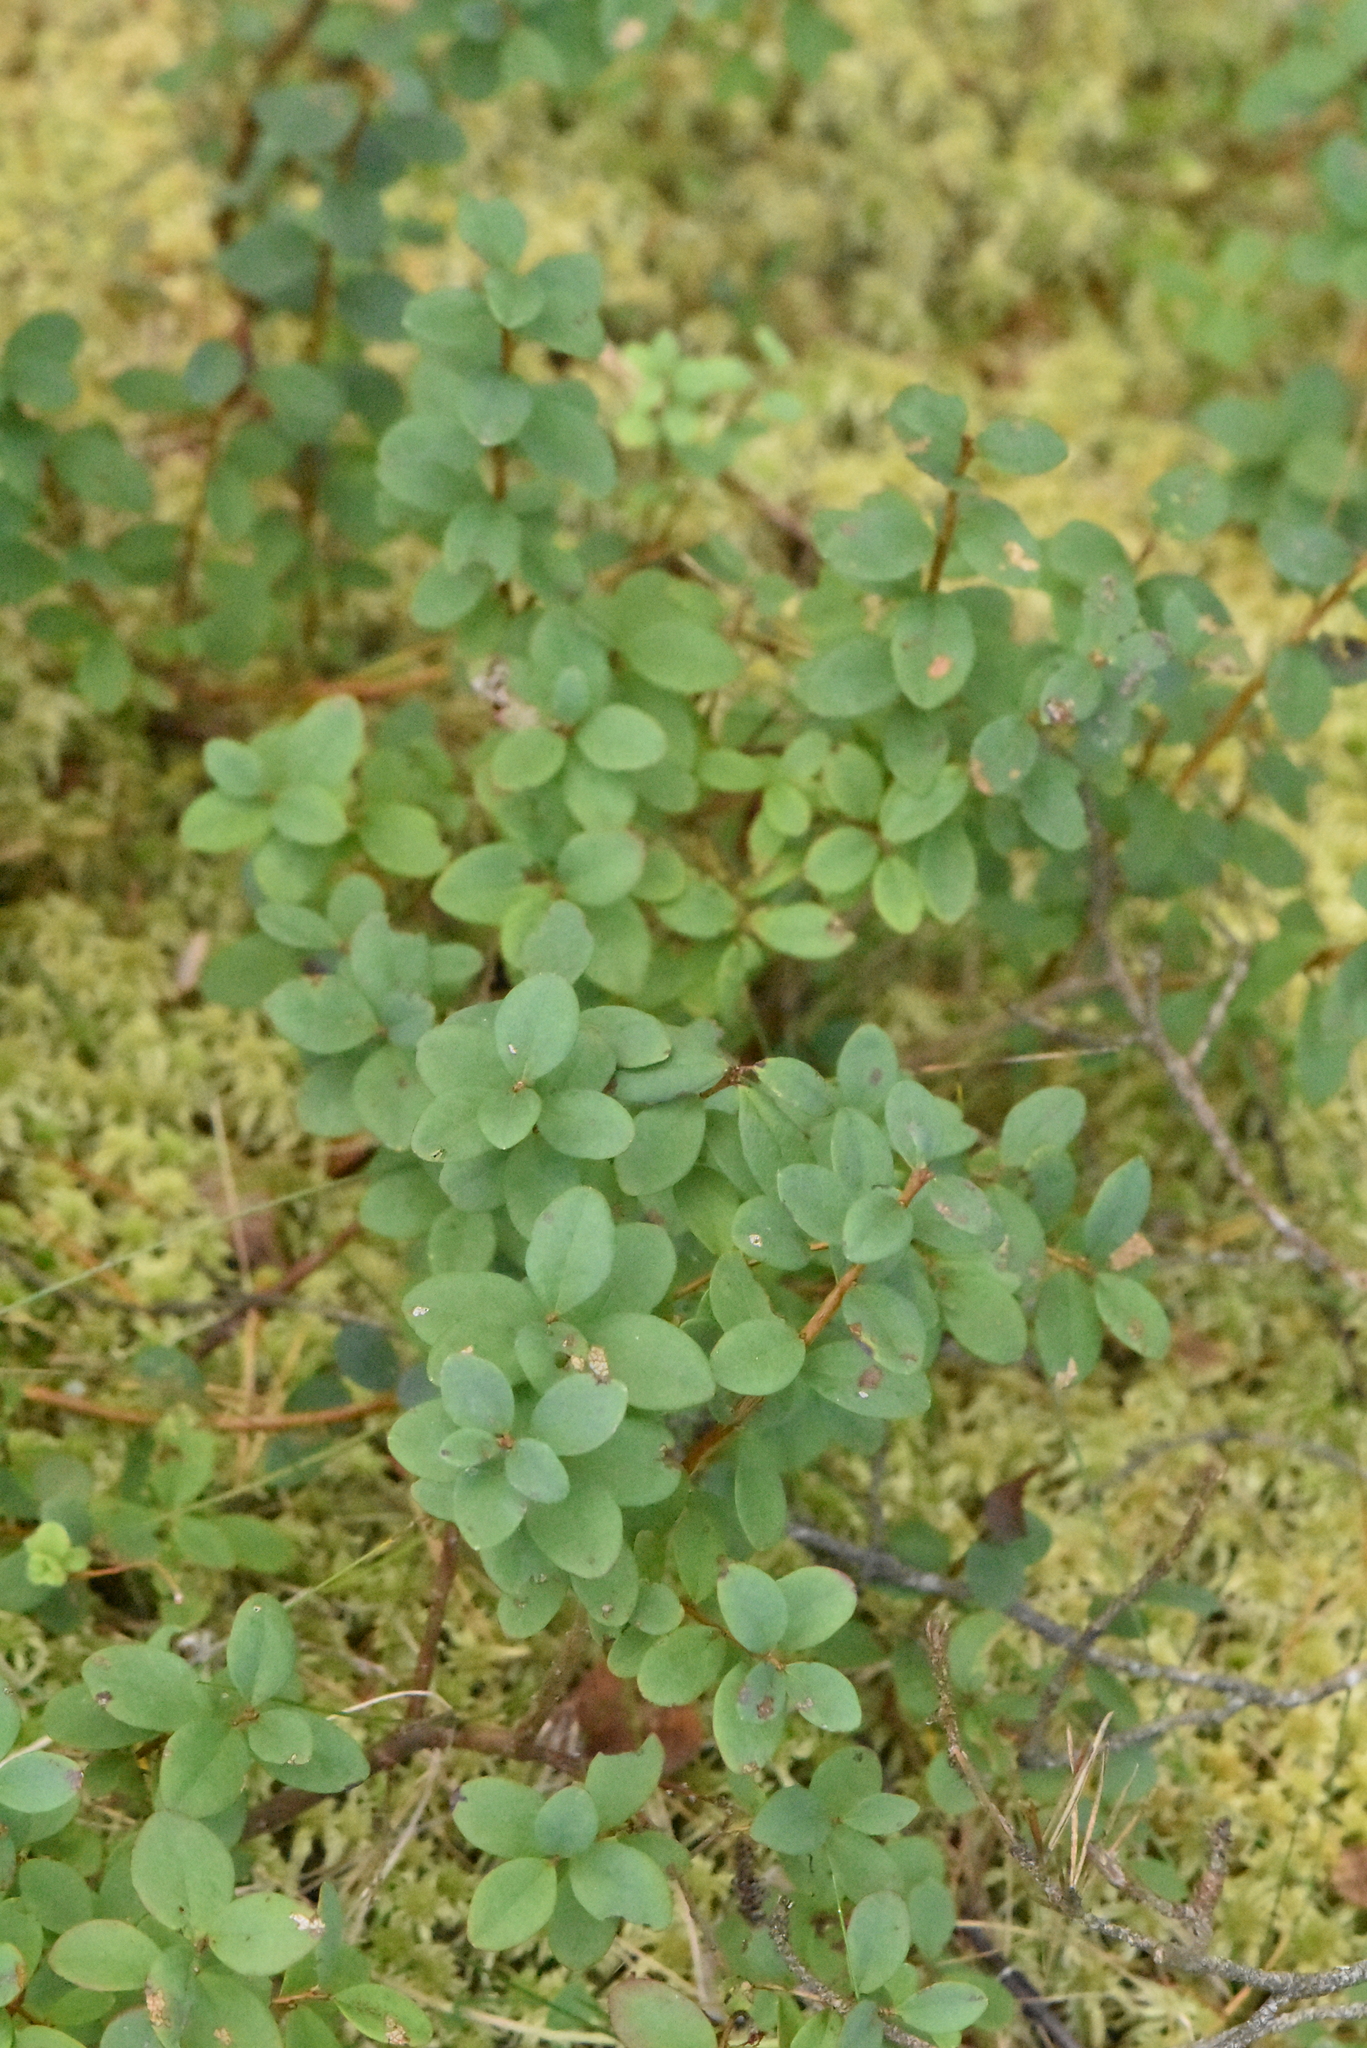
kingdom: Plantae
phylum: Tracheophyta
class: Magnoliopsida
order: Ericales
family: Ericaceae
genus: Vaccinium
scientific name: Vaccinium uliginosum
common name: Bog bilberry
